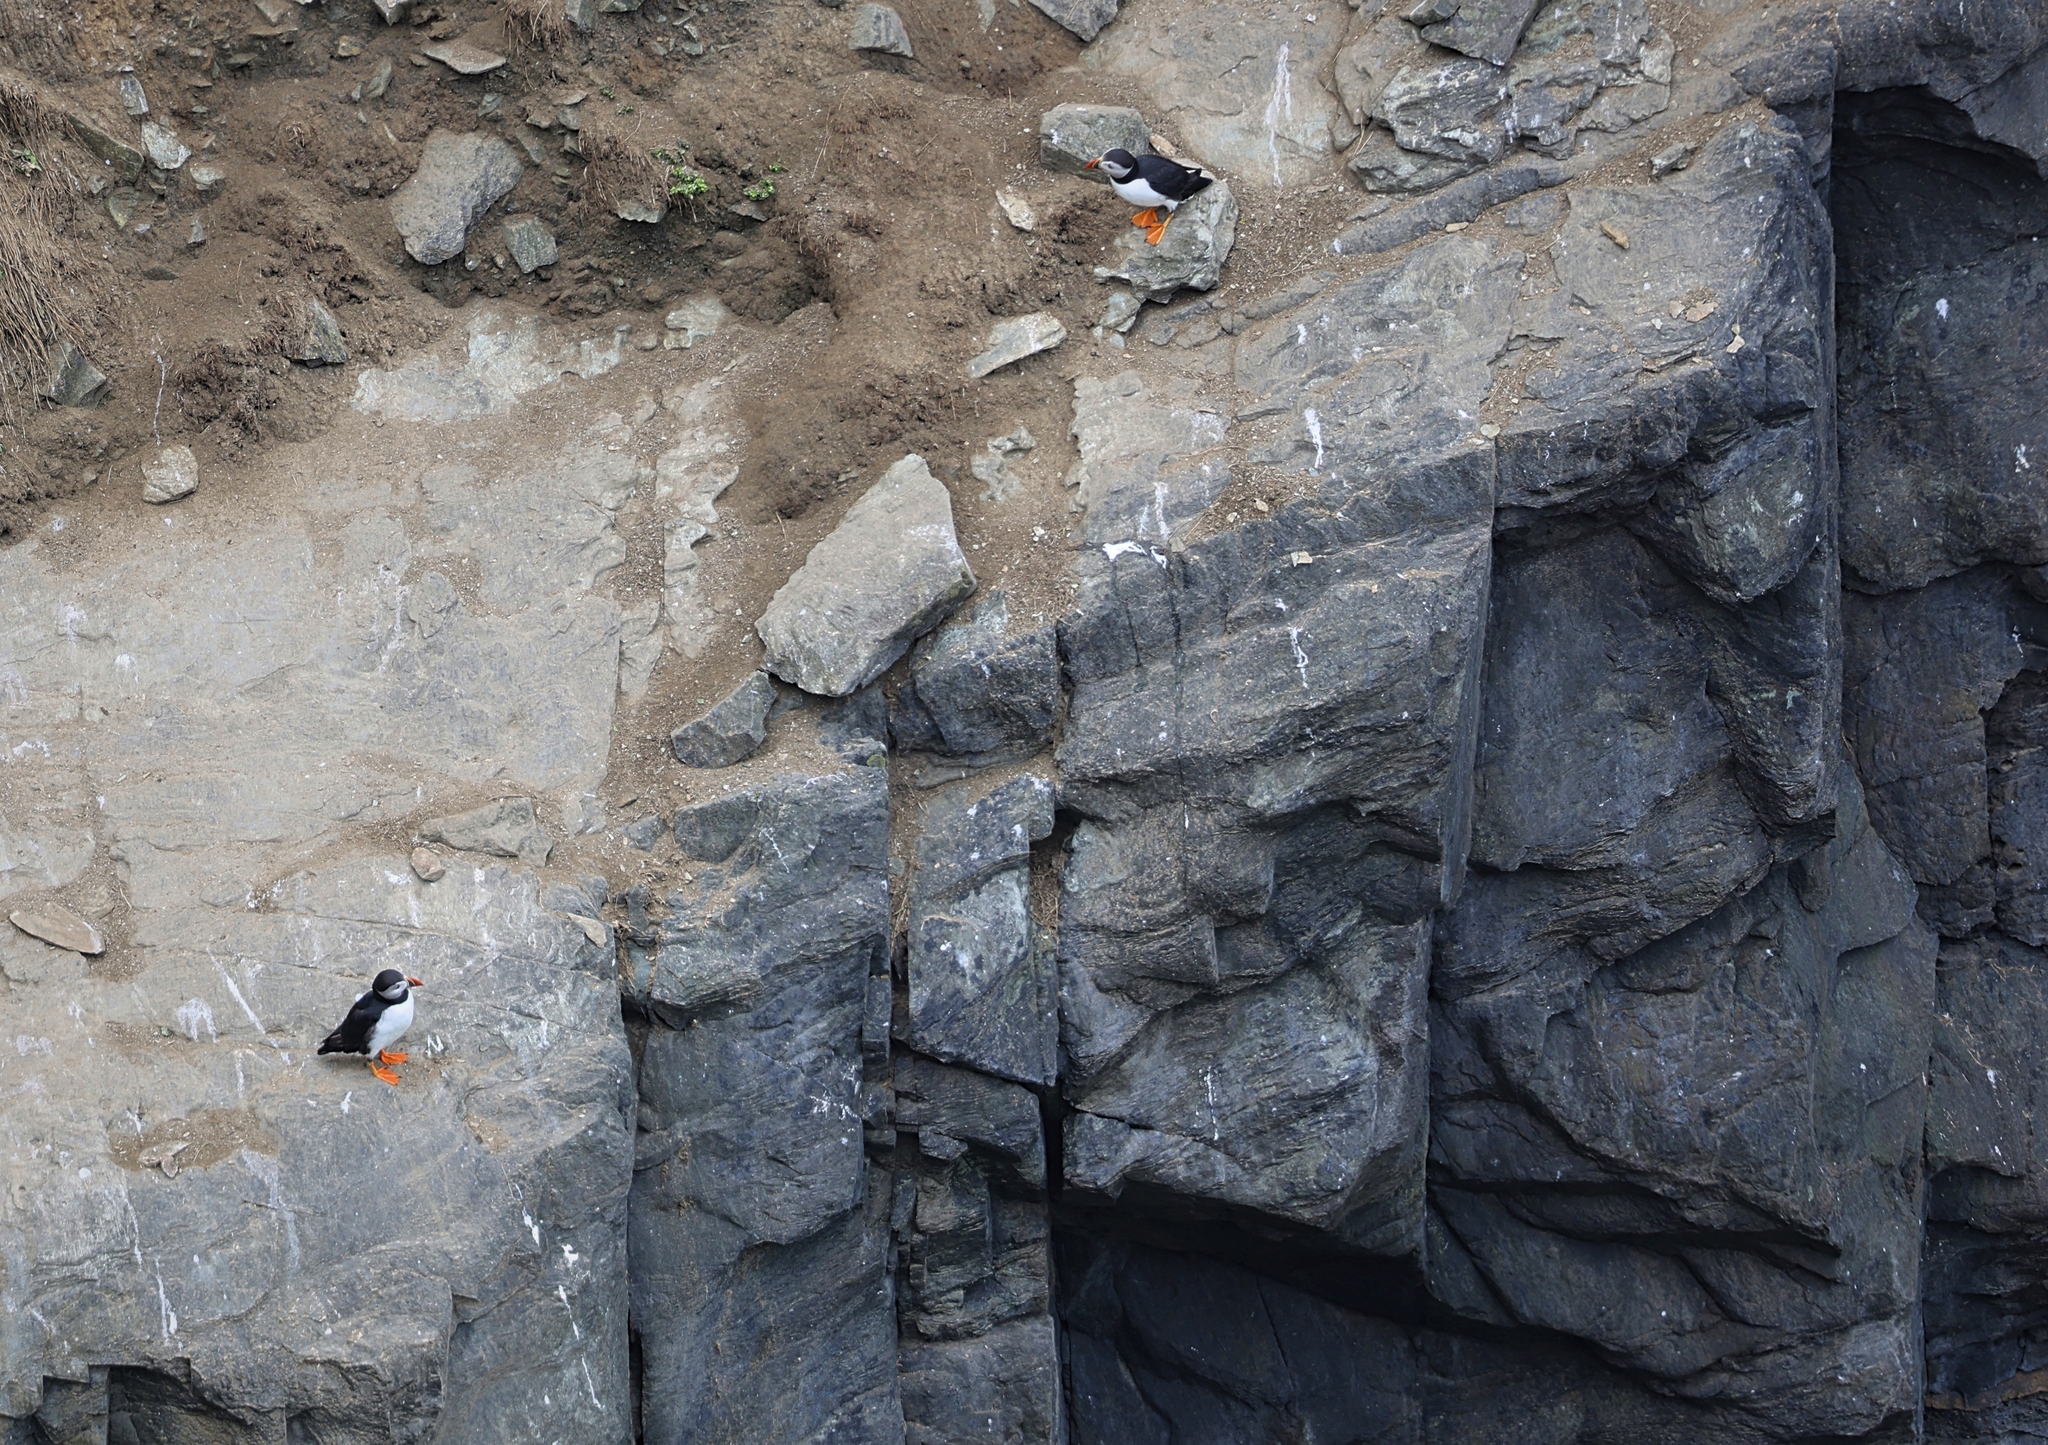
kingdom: Animalia
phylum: Chordata
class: Aves
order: Charadriiformes
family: Alcidae
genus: Fratercula
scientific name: Fratercula arctica
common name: Atlantic puffin
